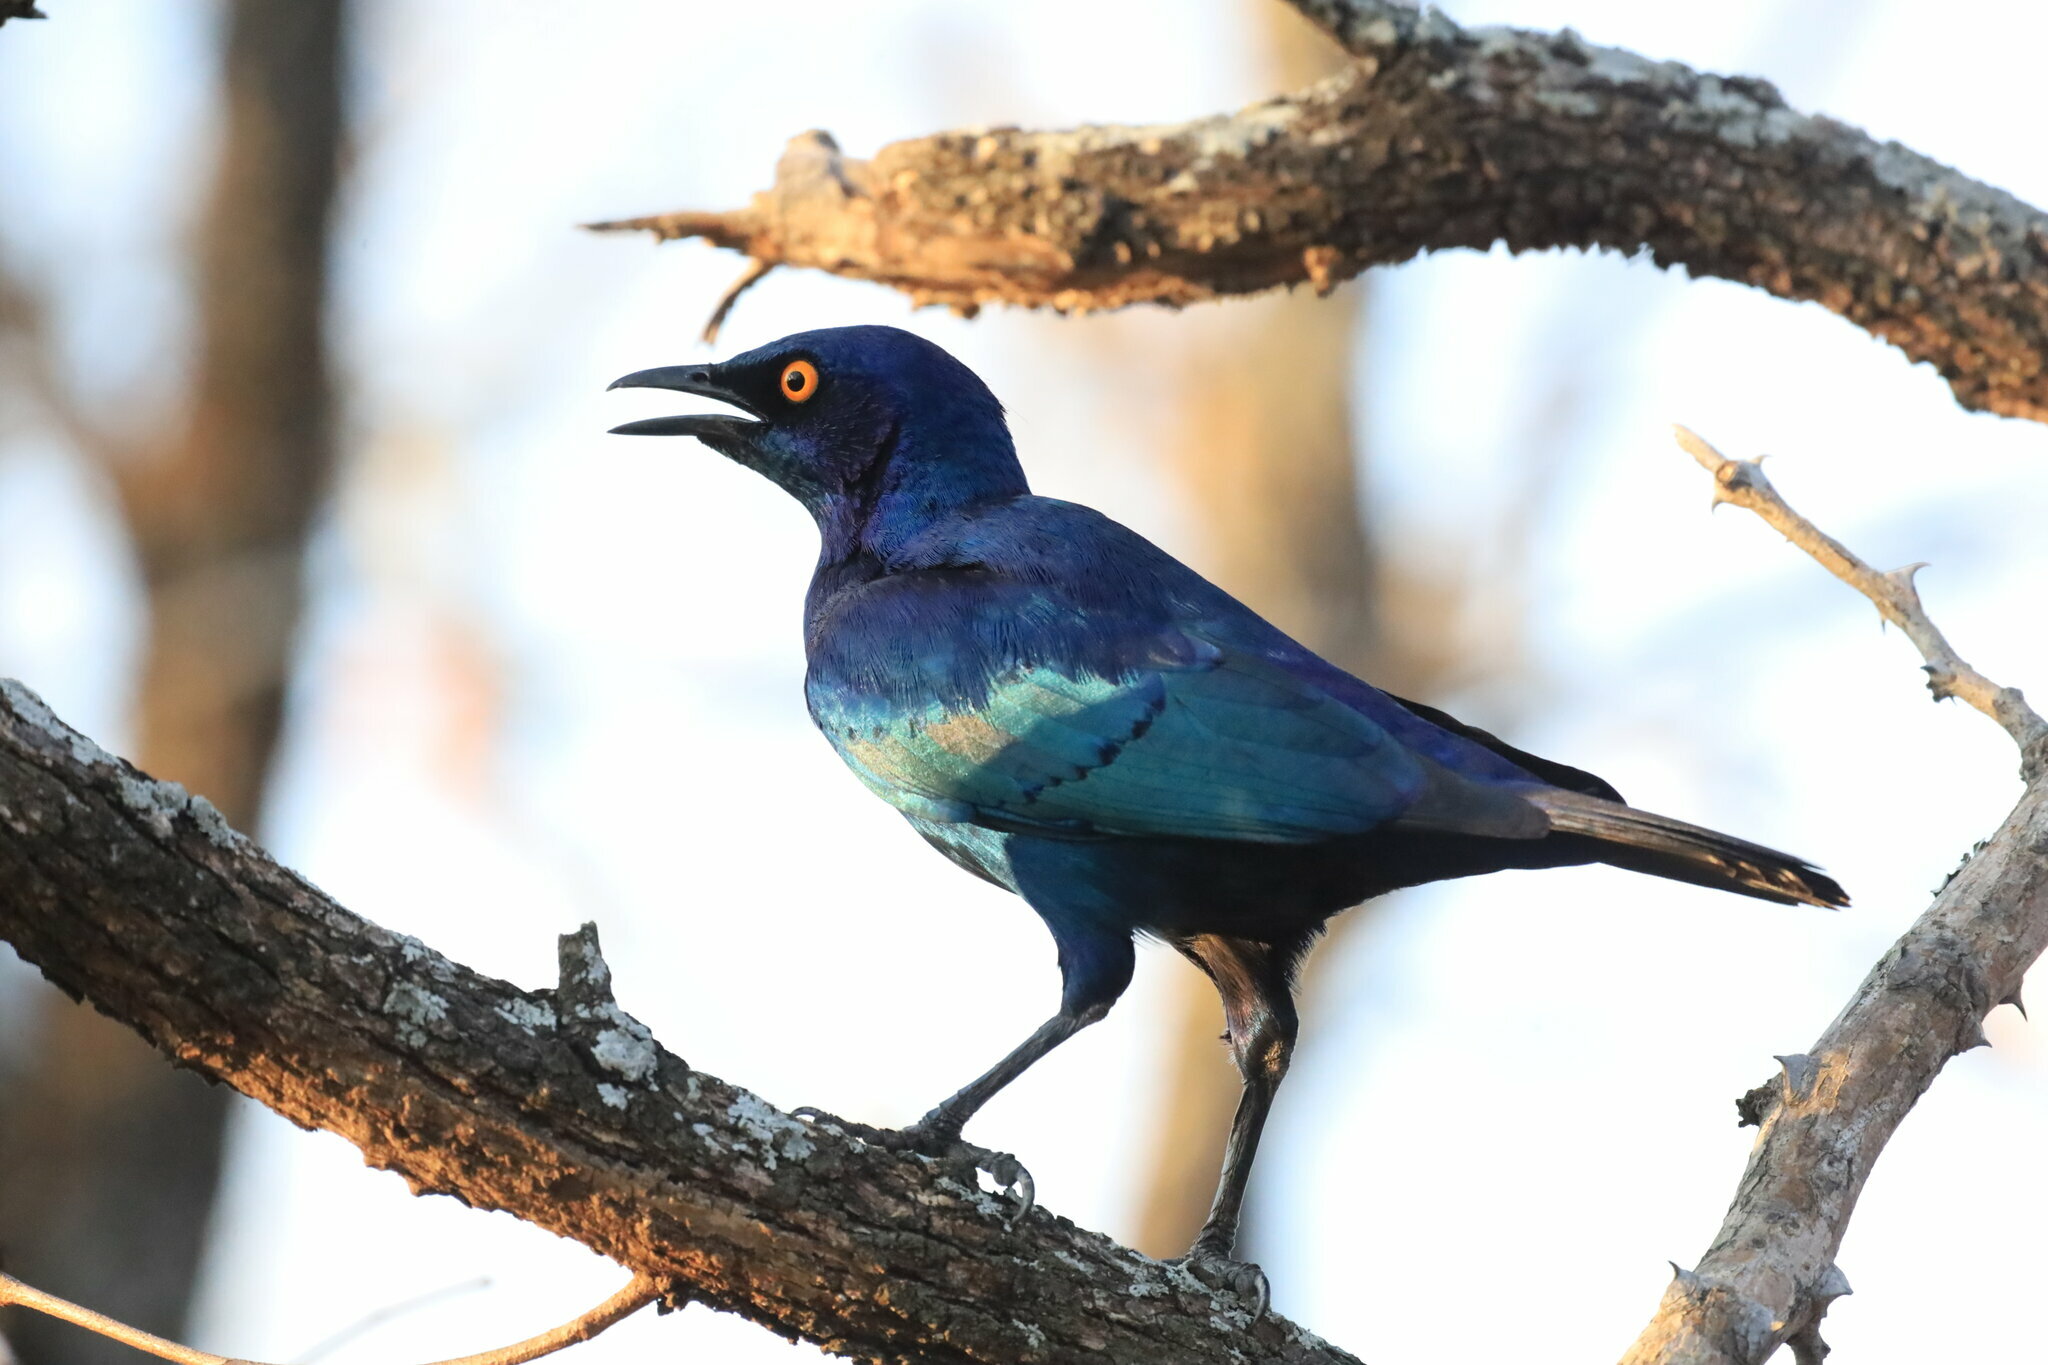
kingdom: Animalia
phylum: Chordata
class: Aves
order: Passeriformes
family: Sturnidae
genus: Lamprotornis
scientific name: Lamprotornis nitens
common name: Cape starling
